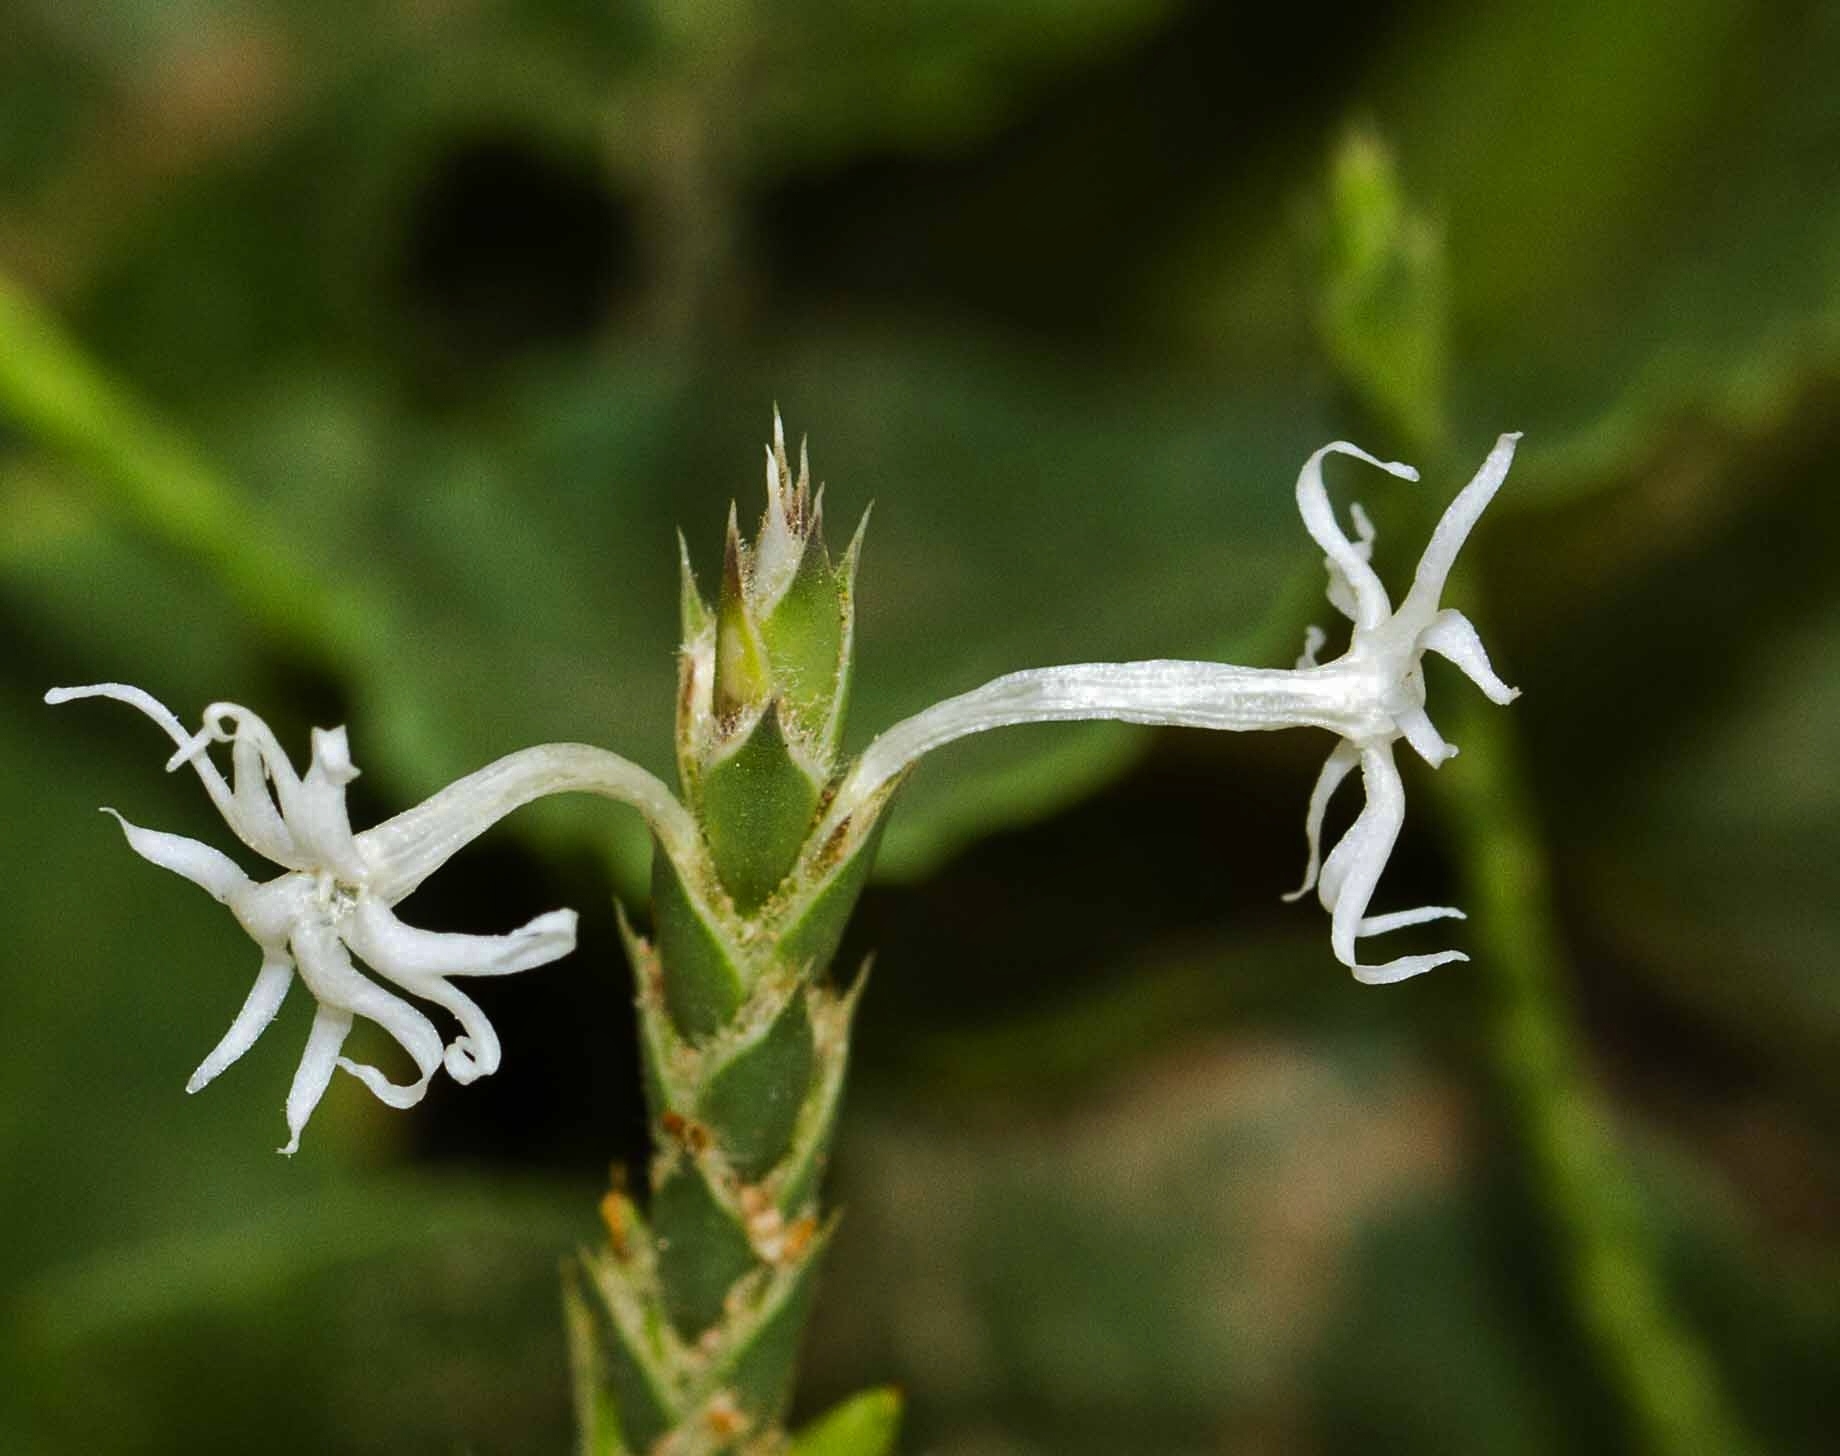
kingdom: Plantae
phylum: Tracheophyta
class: Magnoliopsida
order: Lamiales
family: Acanthaceae
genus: Elytraria
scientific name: Elytraria acaulis
